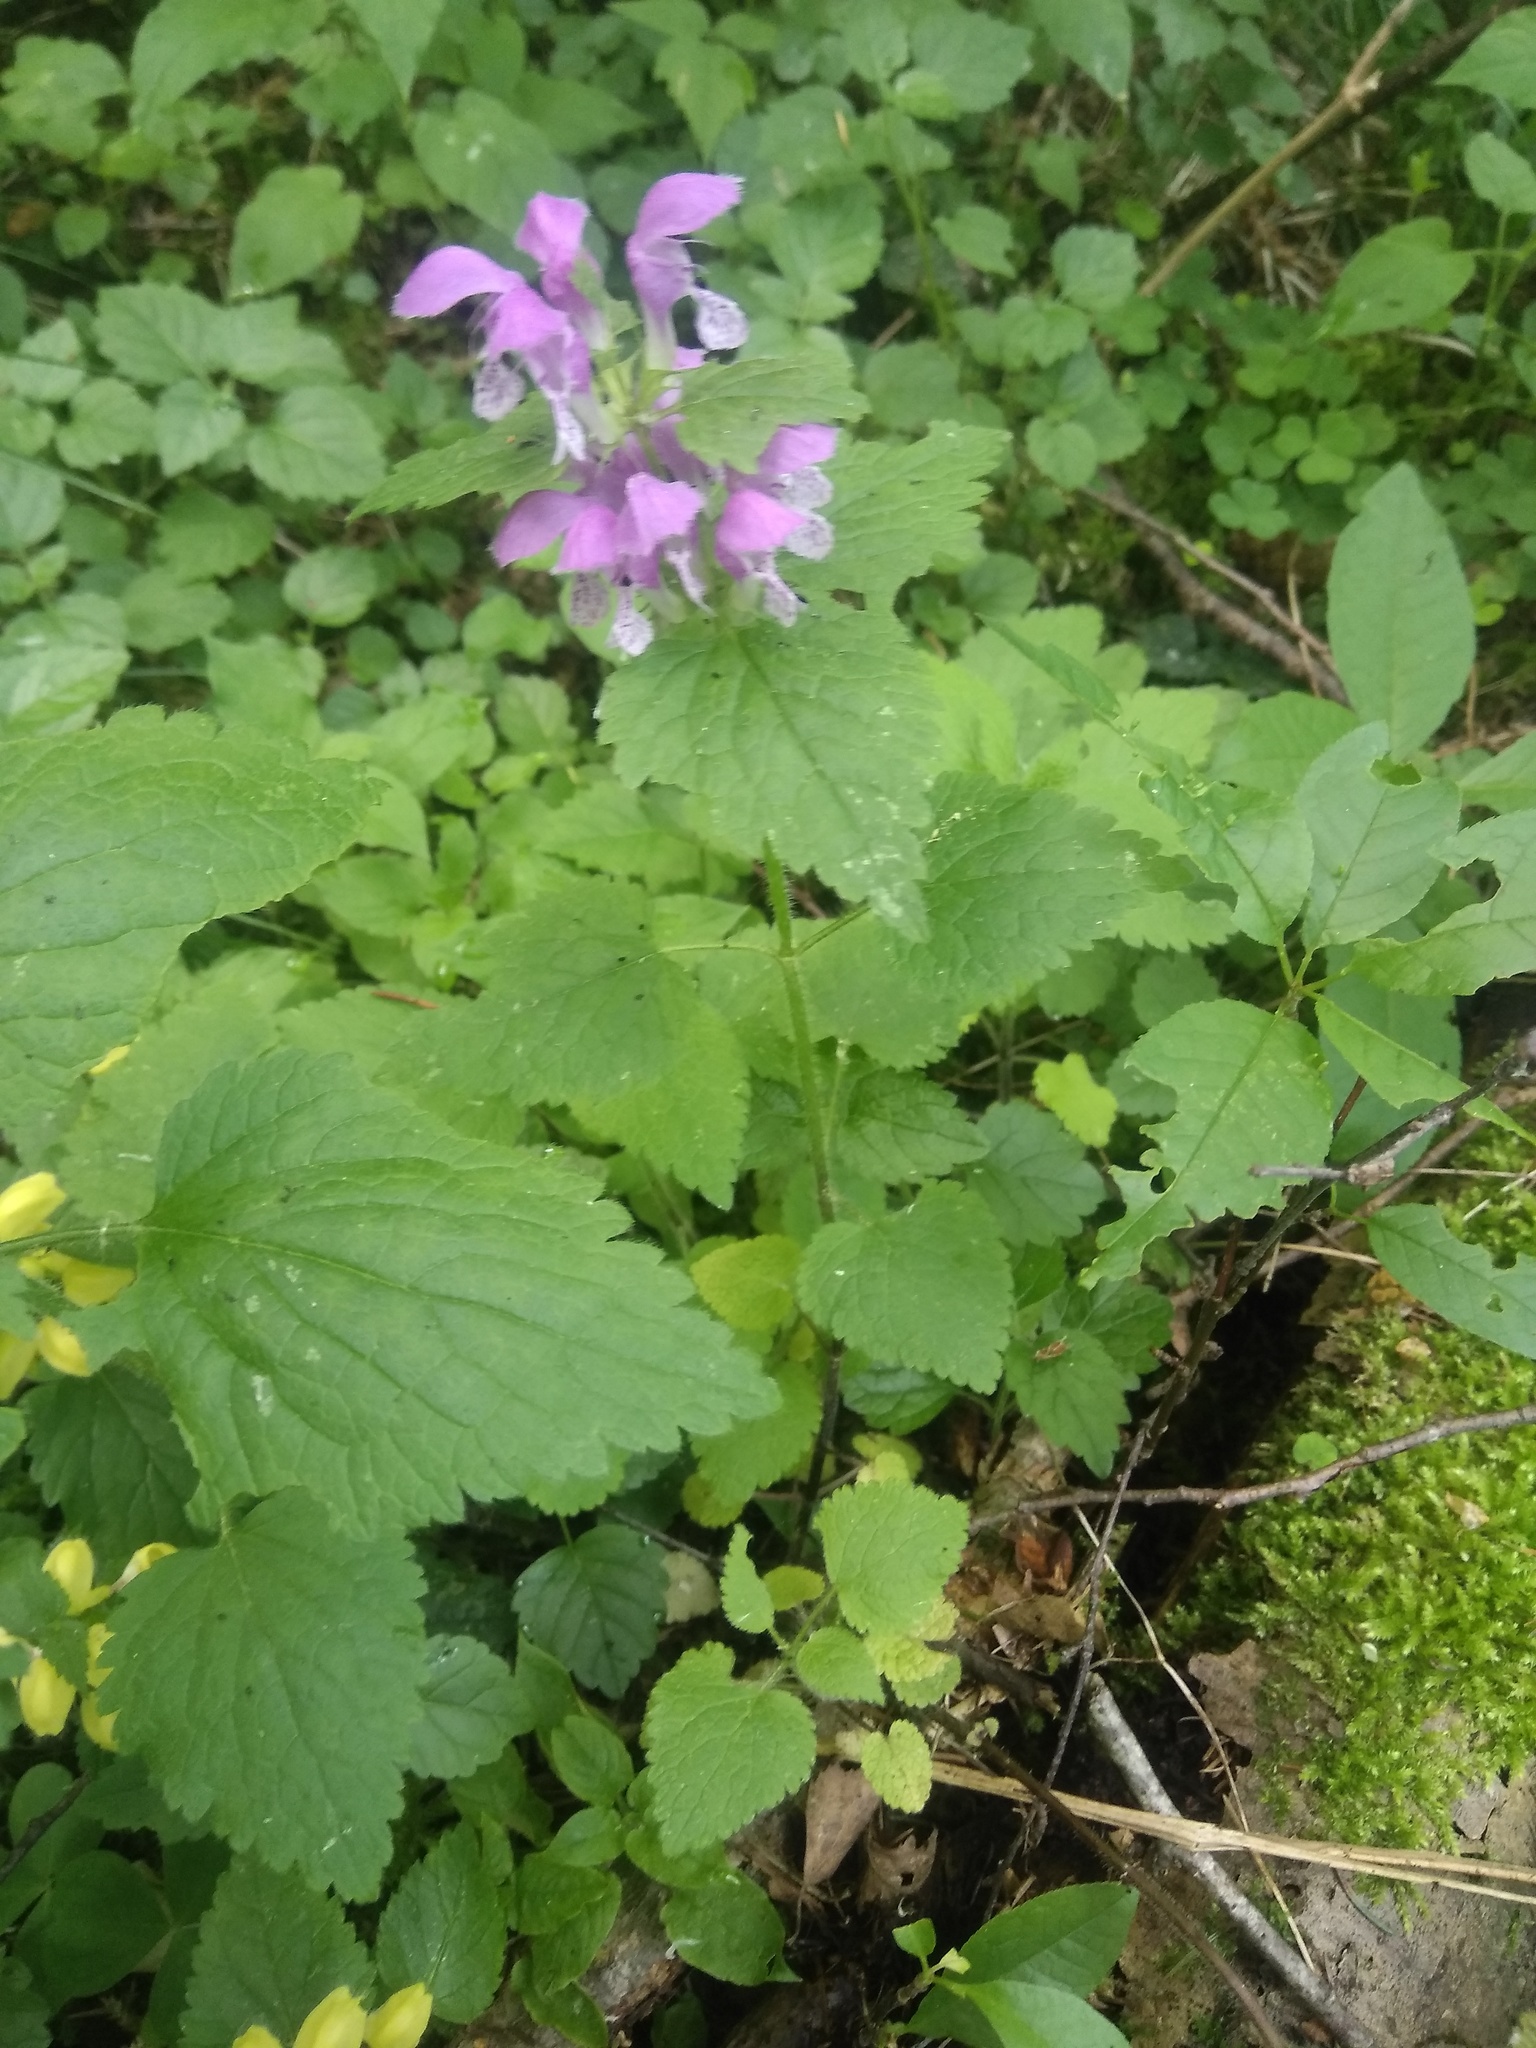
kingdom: Plantae
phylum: Tracheophyta
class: Magnoliopsida
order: Lamiales
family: Lamiaceae
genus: Lamium
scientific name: Lamium maculatum
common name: Spotted dead-nettle
